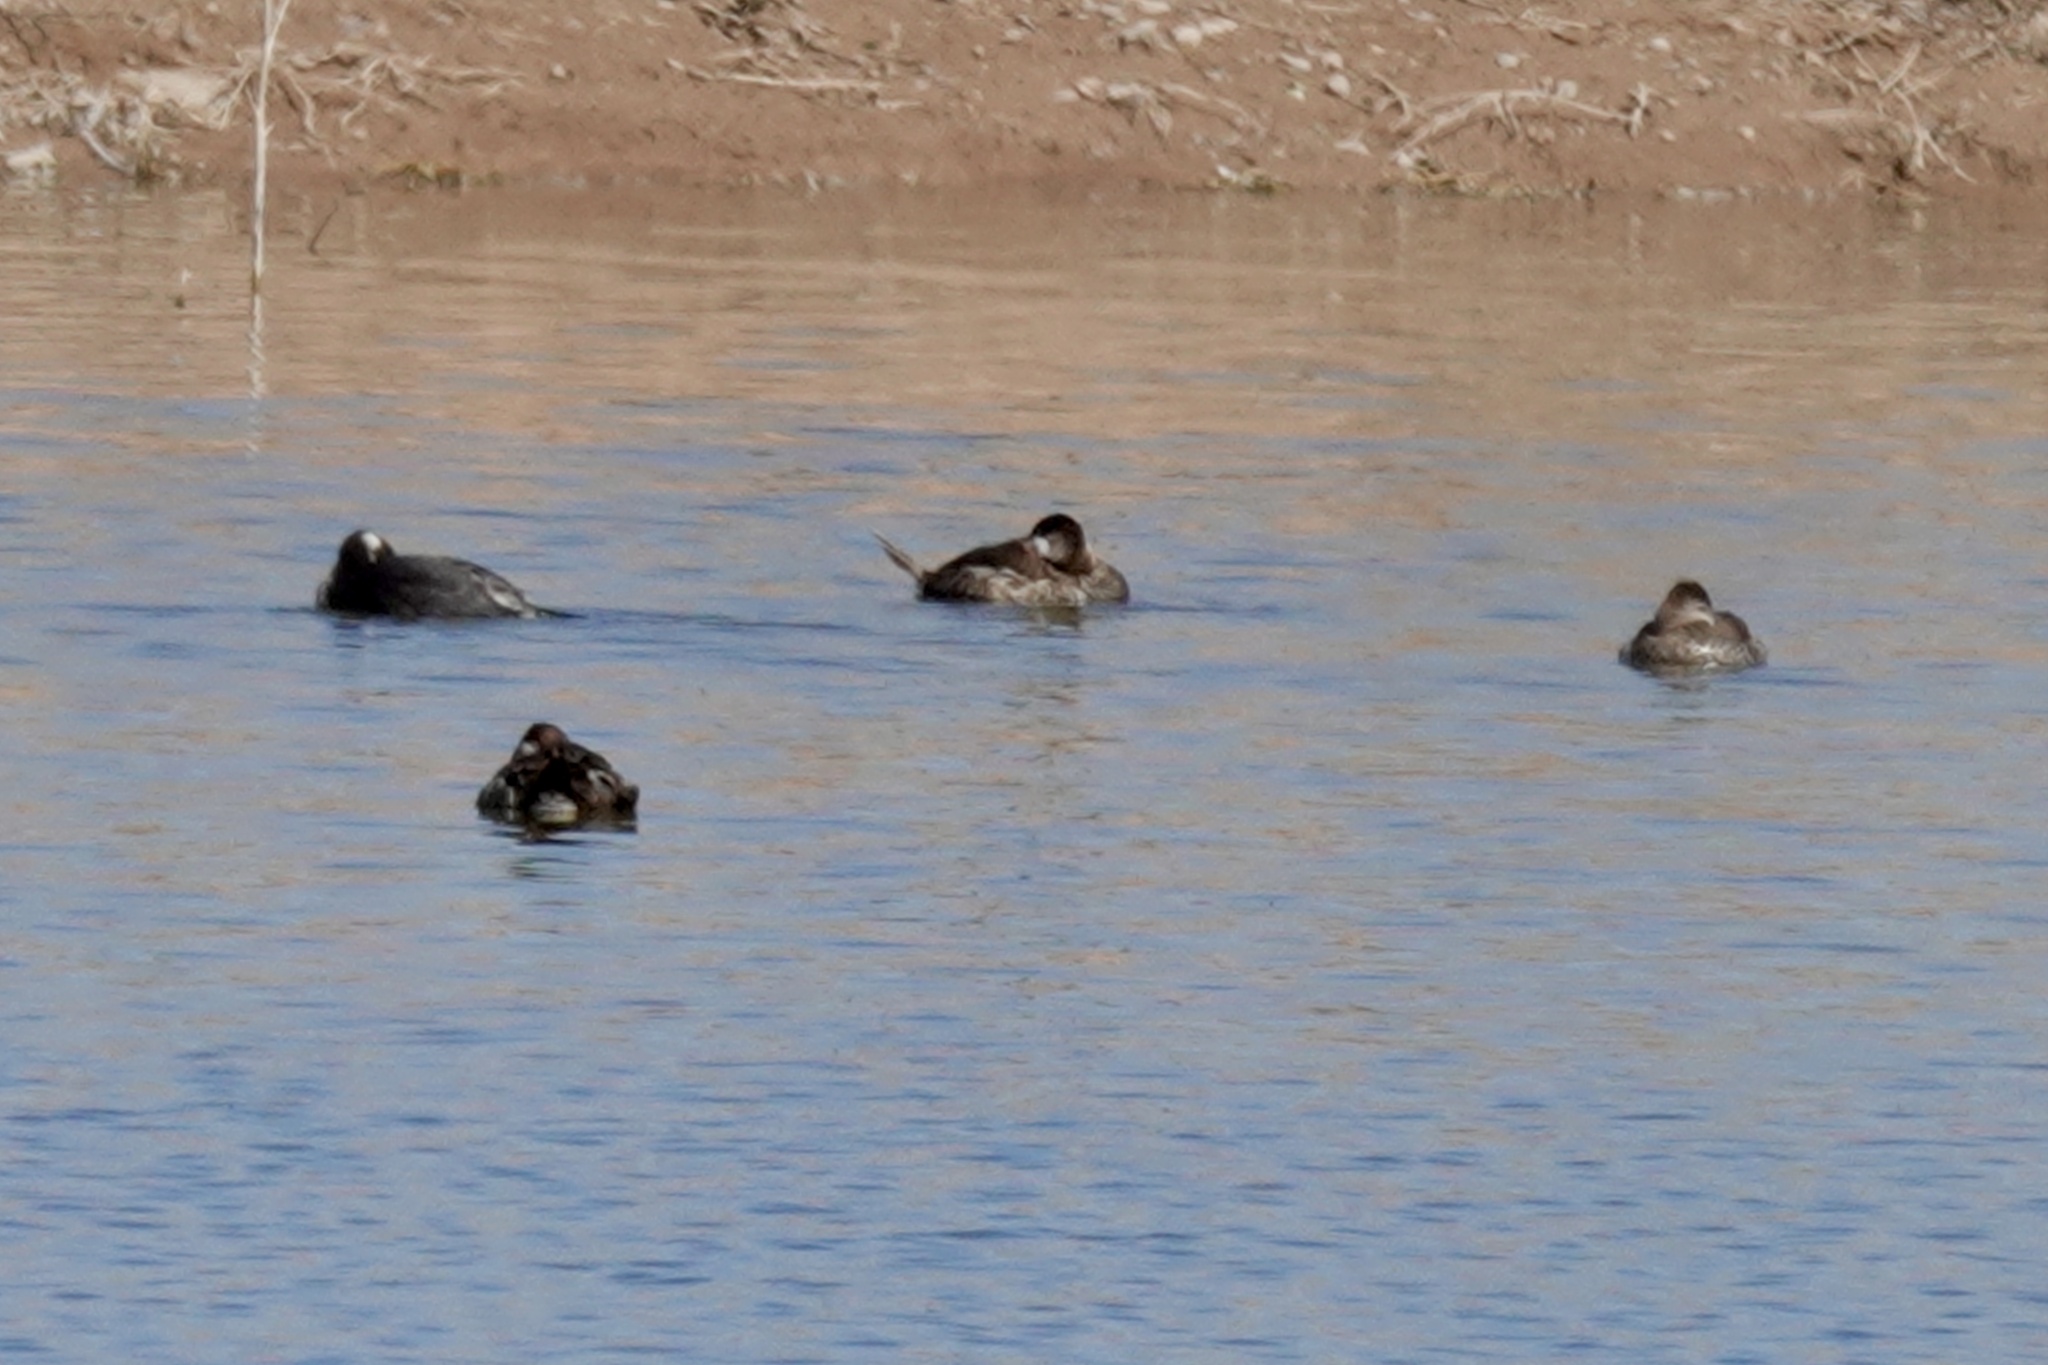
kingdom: Animalia
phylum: Chordata
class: Aves
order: Anseriformes
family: Anatidae
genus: Oxyura
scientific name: Oxyura jamaicensis
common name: Ruddy duck
